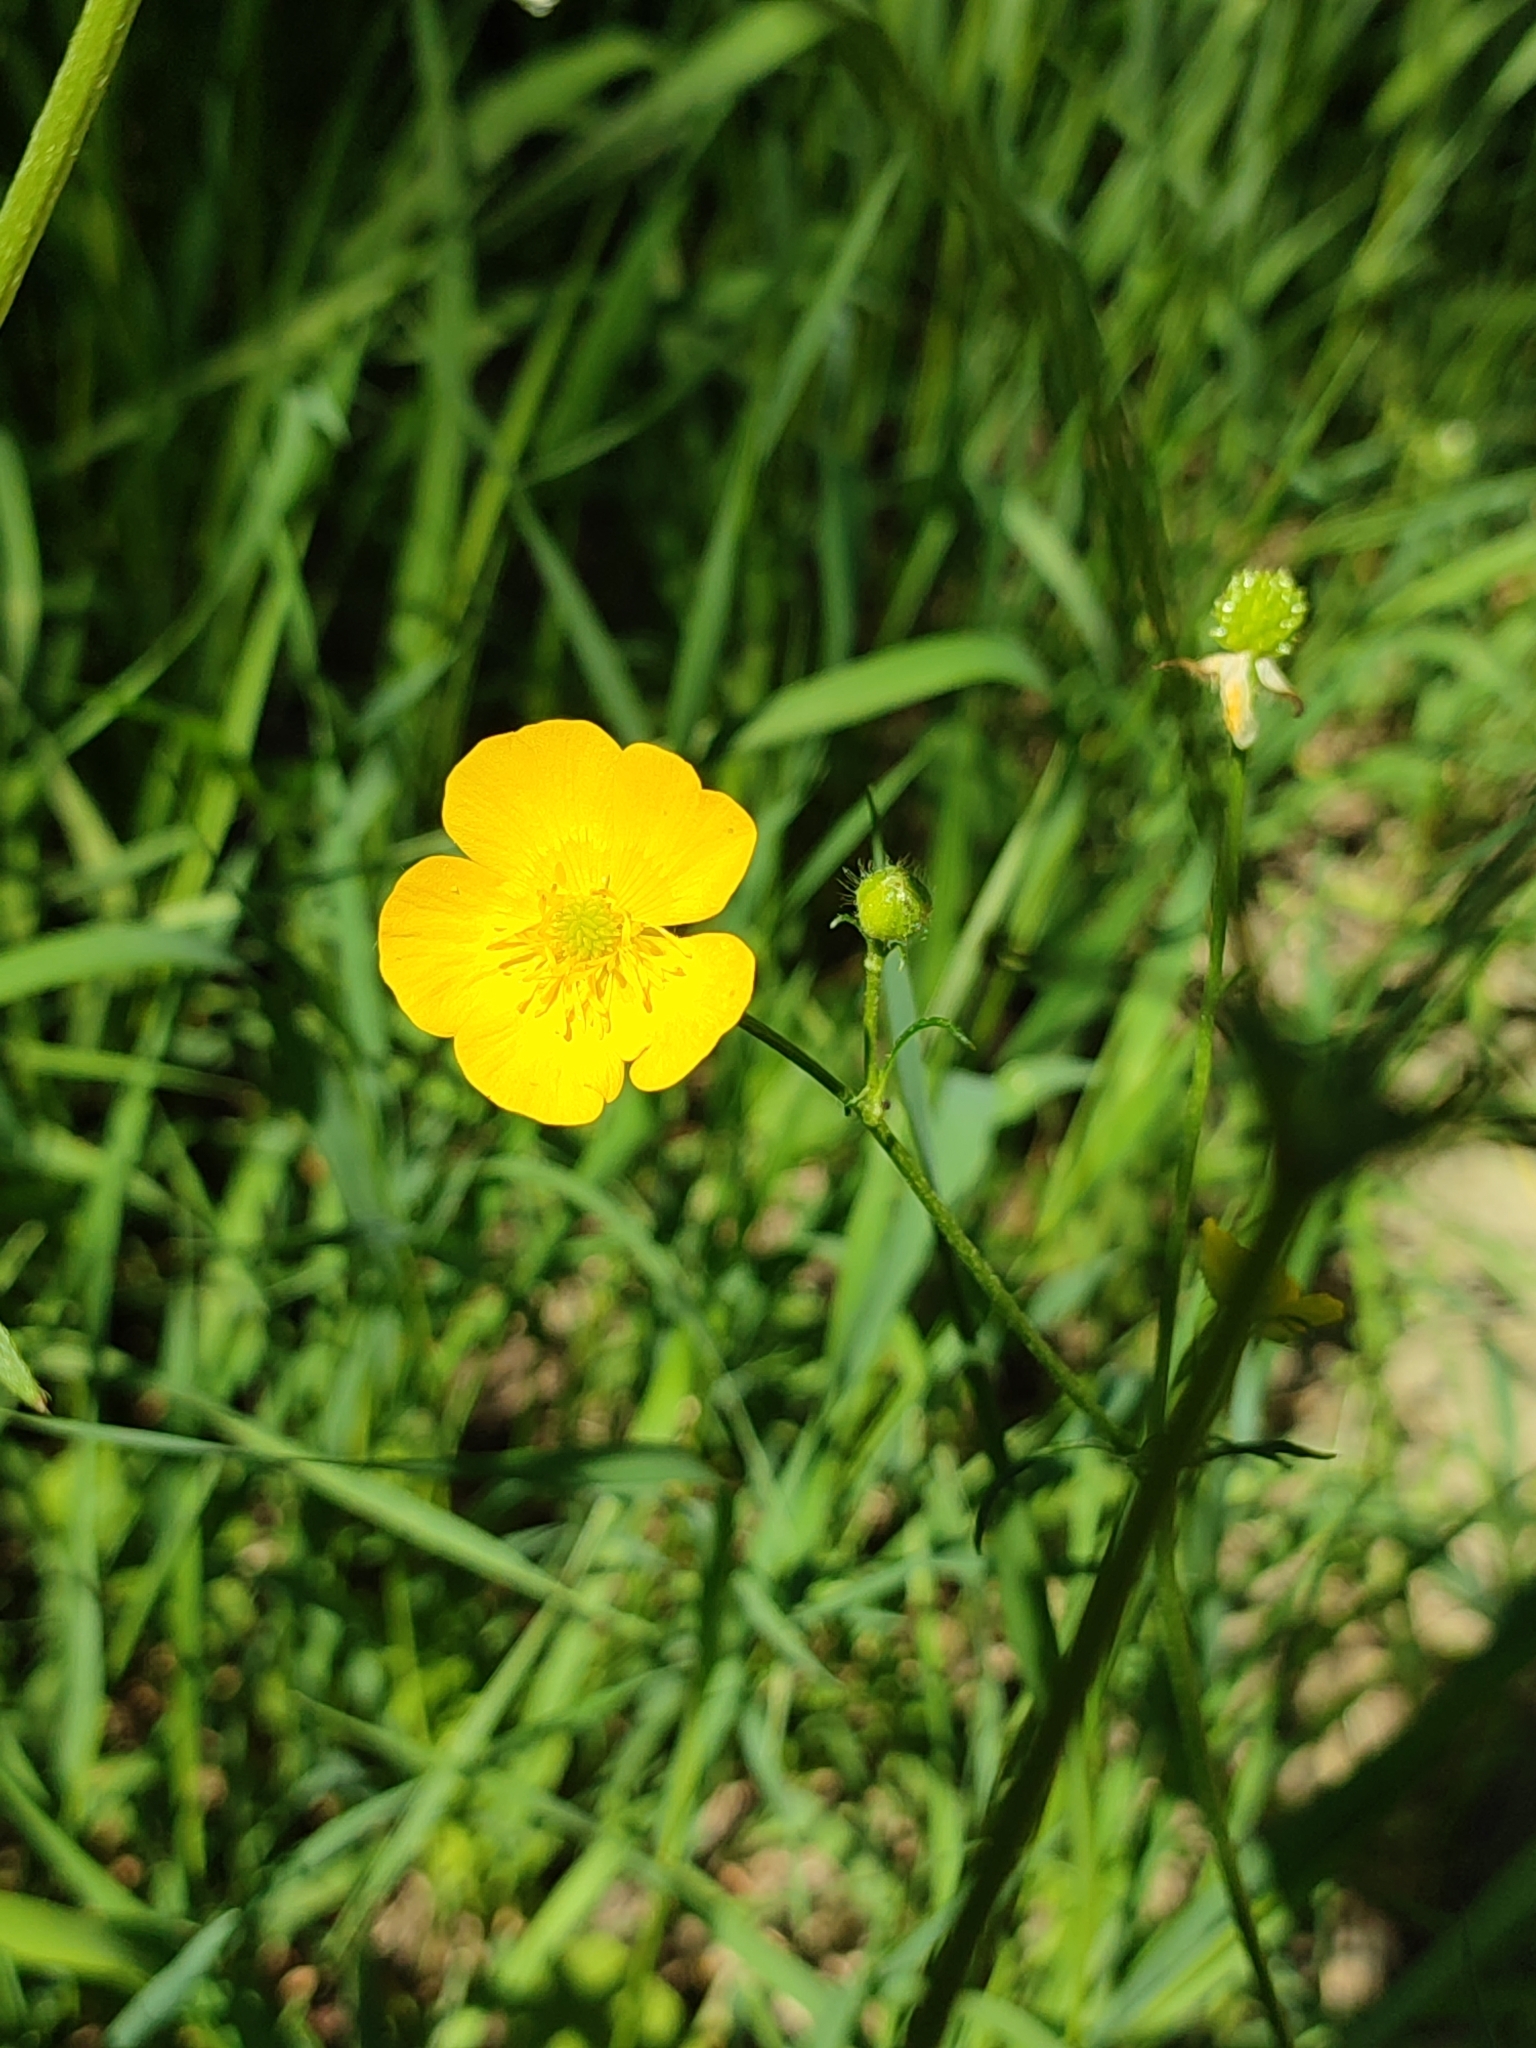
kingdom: Plantae
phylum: Tracheophyta
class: Magnoliopsida
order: Ranunculales
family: Ranunculaceae
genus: Ranunculus
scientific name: Ranunculus polyanthemos
